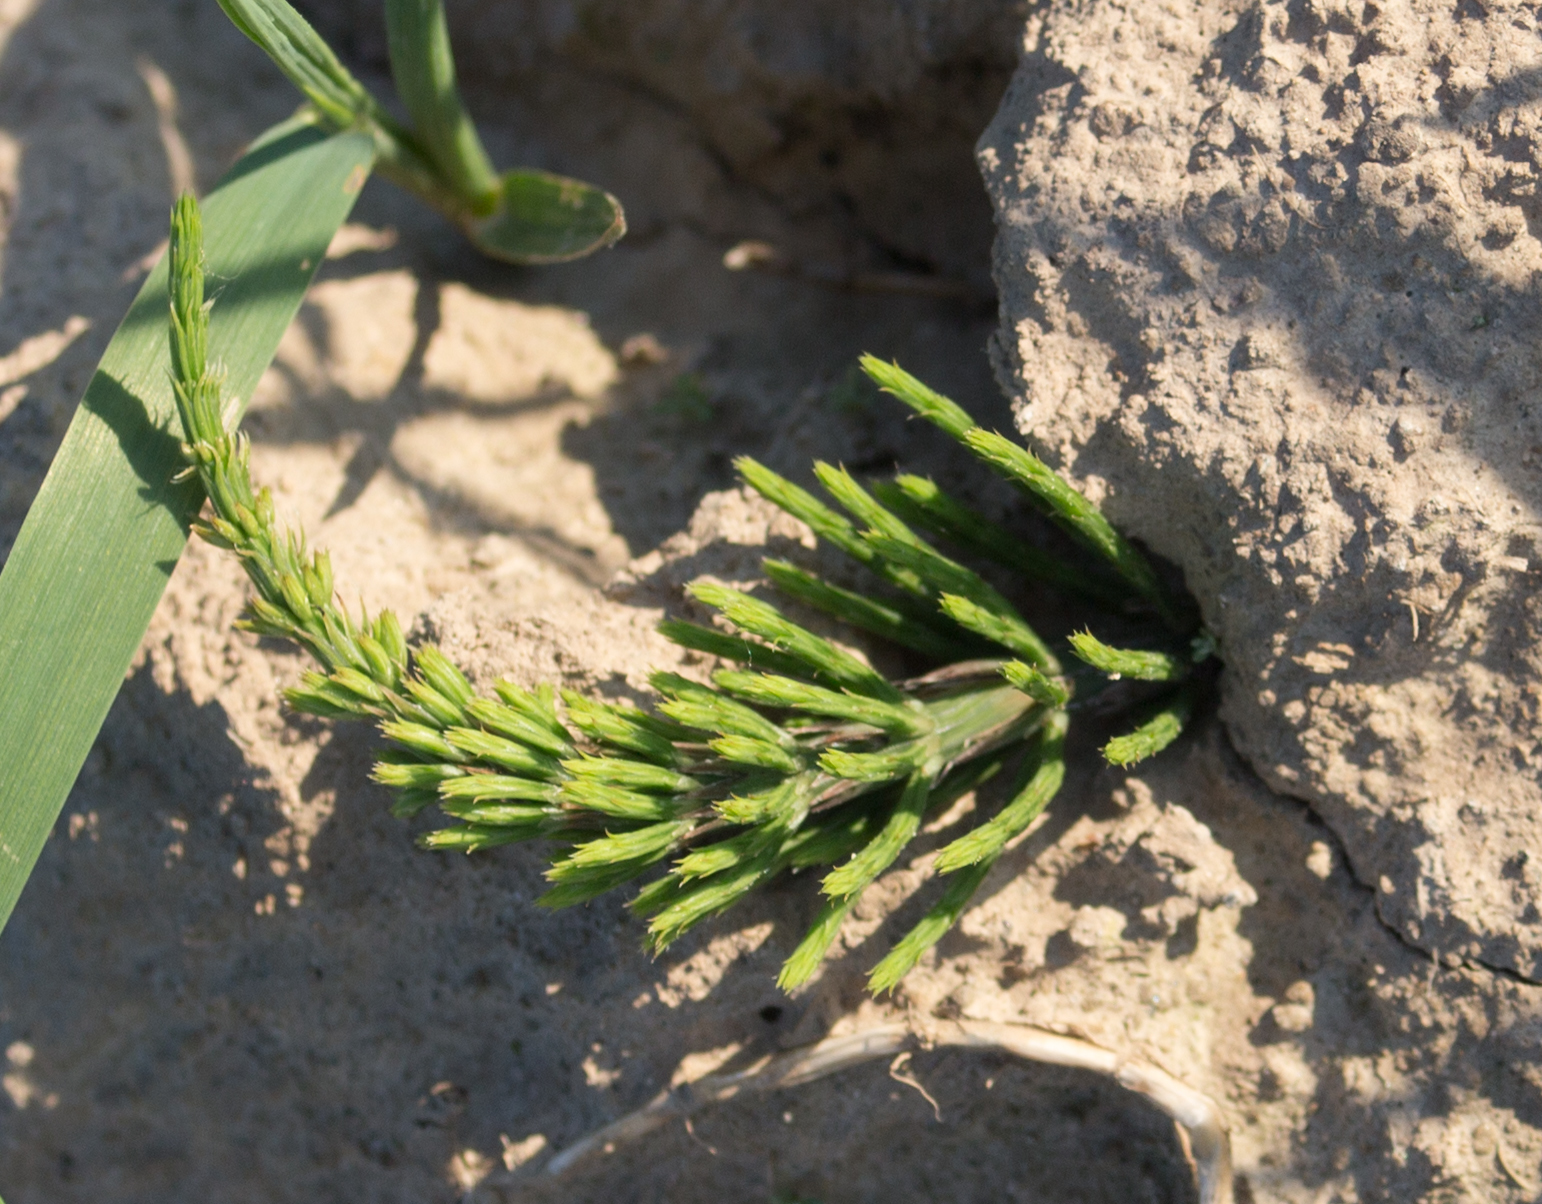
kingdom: Plantae
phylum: Tracheophyta
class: Polypodiopsida
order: Equisetales
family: Equisetaceae
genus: Equisetum
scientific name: Equisetum arvense
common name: Field horsetail
